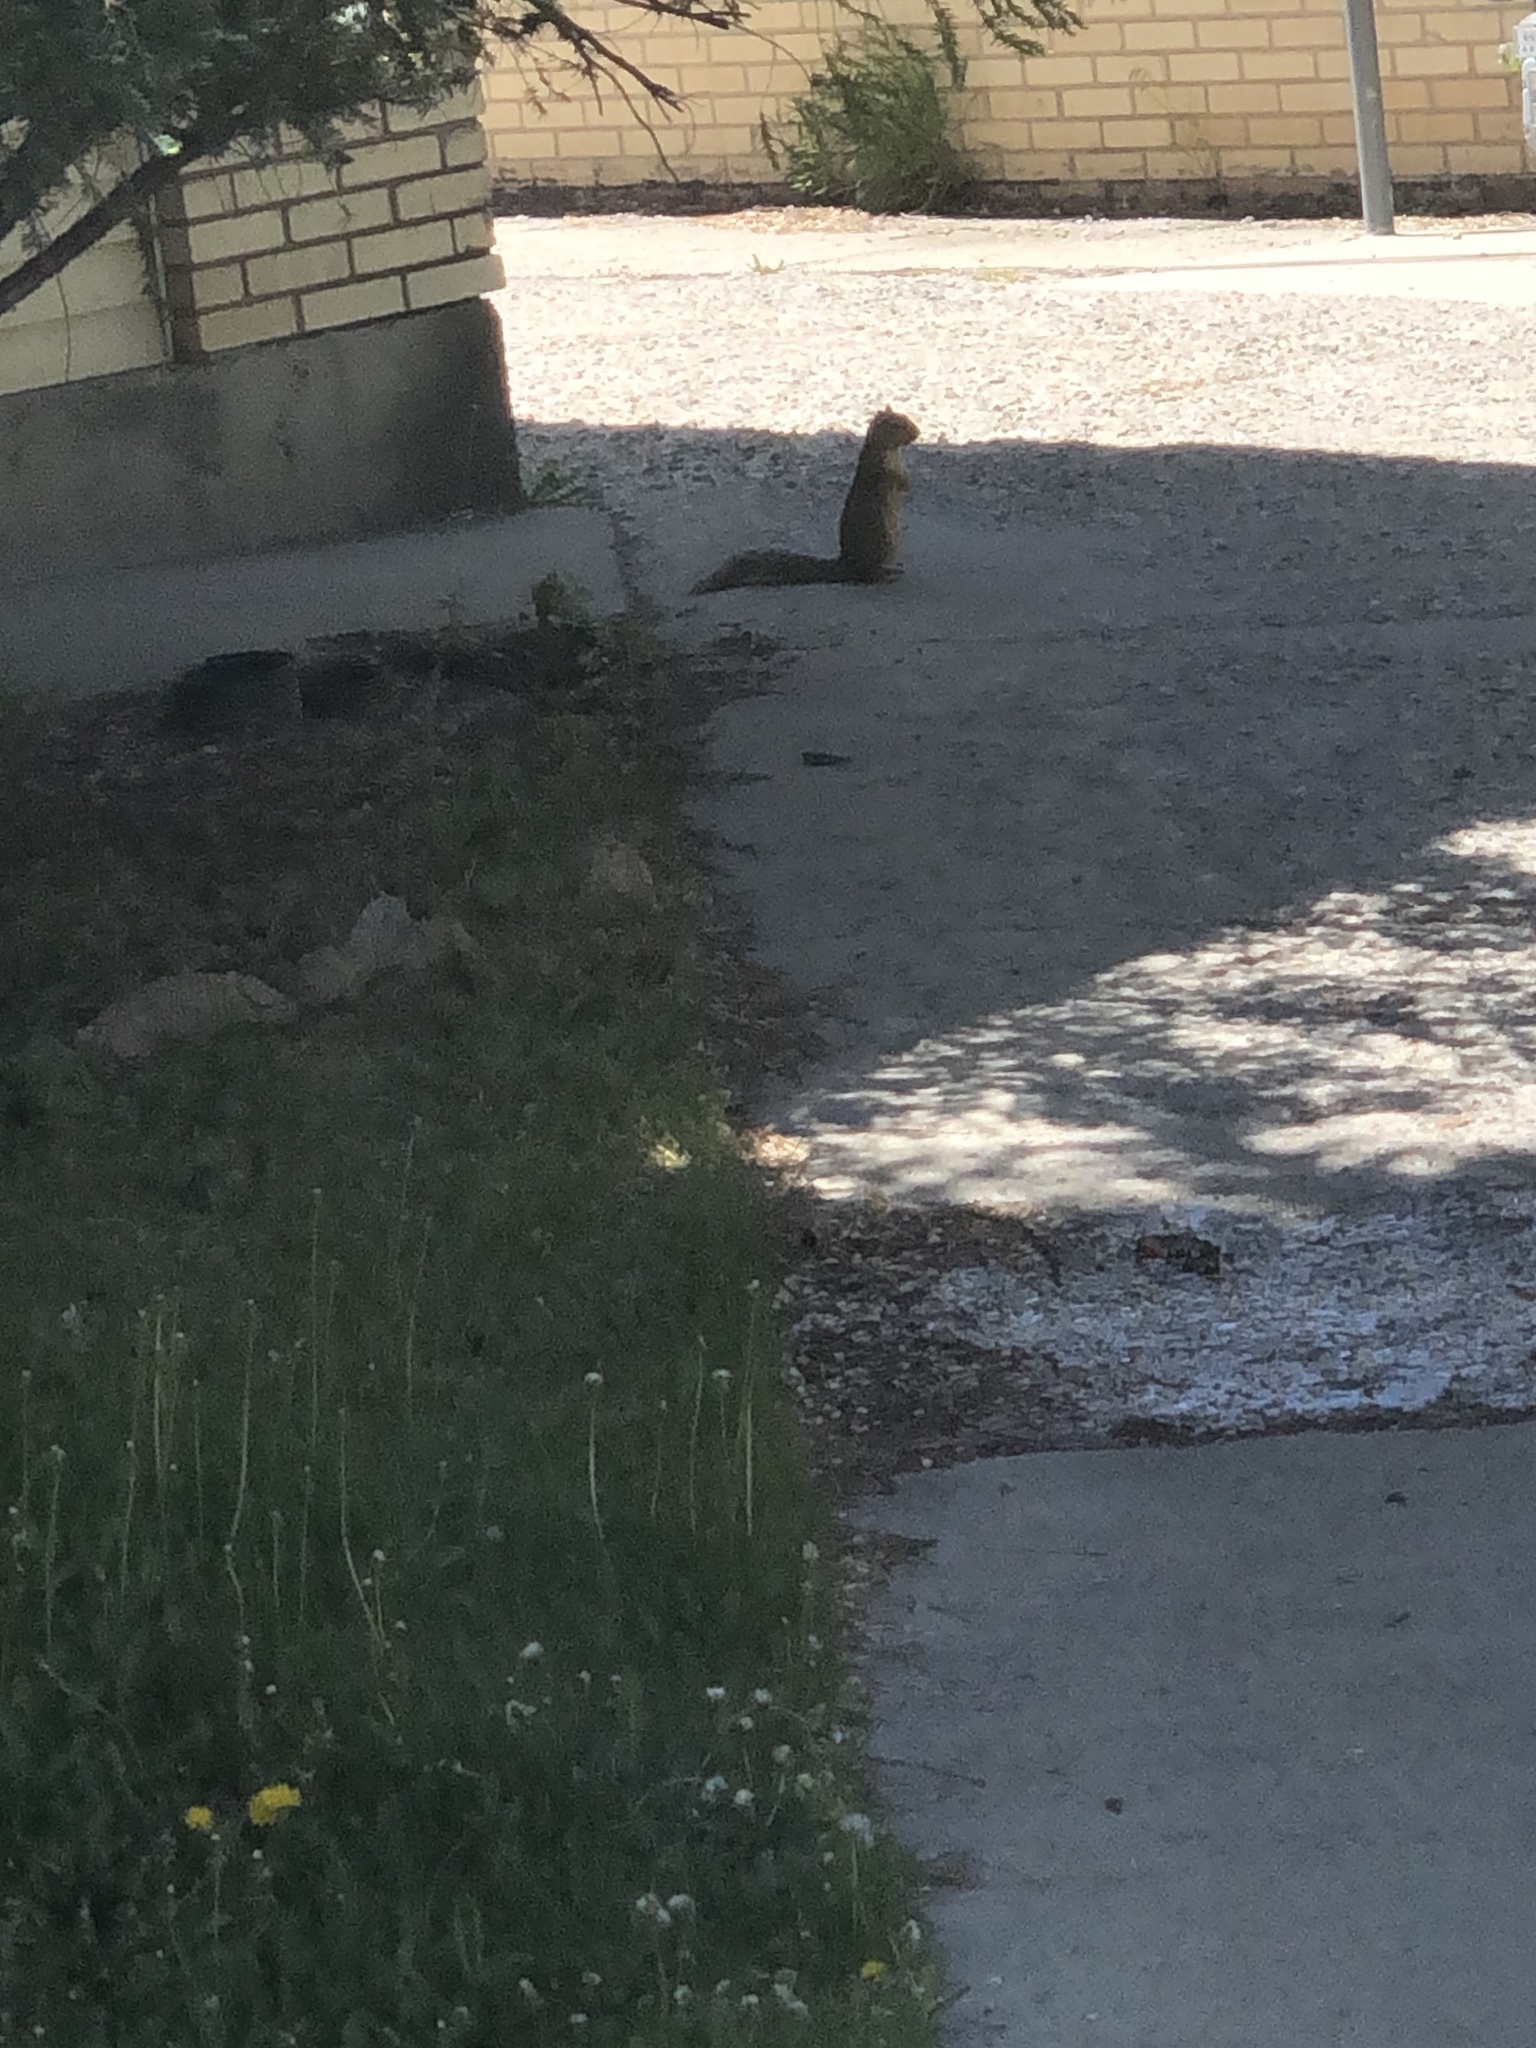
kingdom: Animalia
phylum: Chordata
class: Mammalia
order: Rodentia
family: Sciuridae
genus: Sciurus
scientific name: Sciurus niger
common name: Fox squirrel
